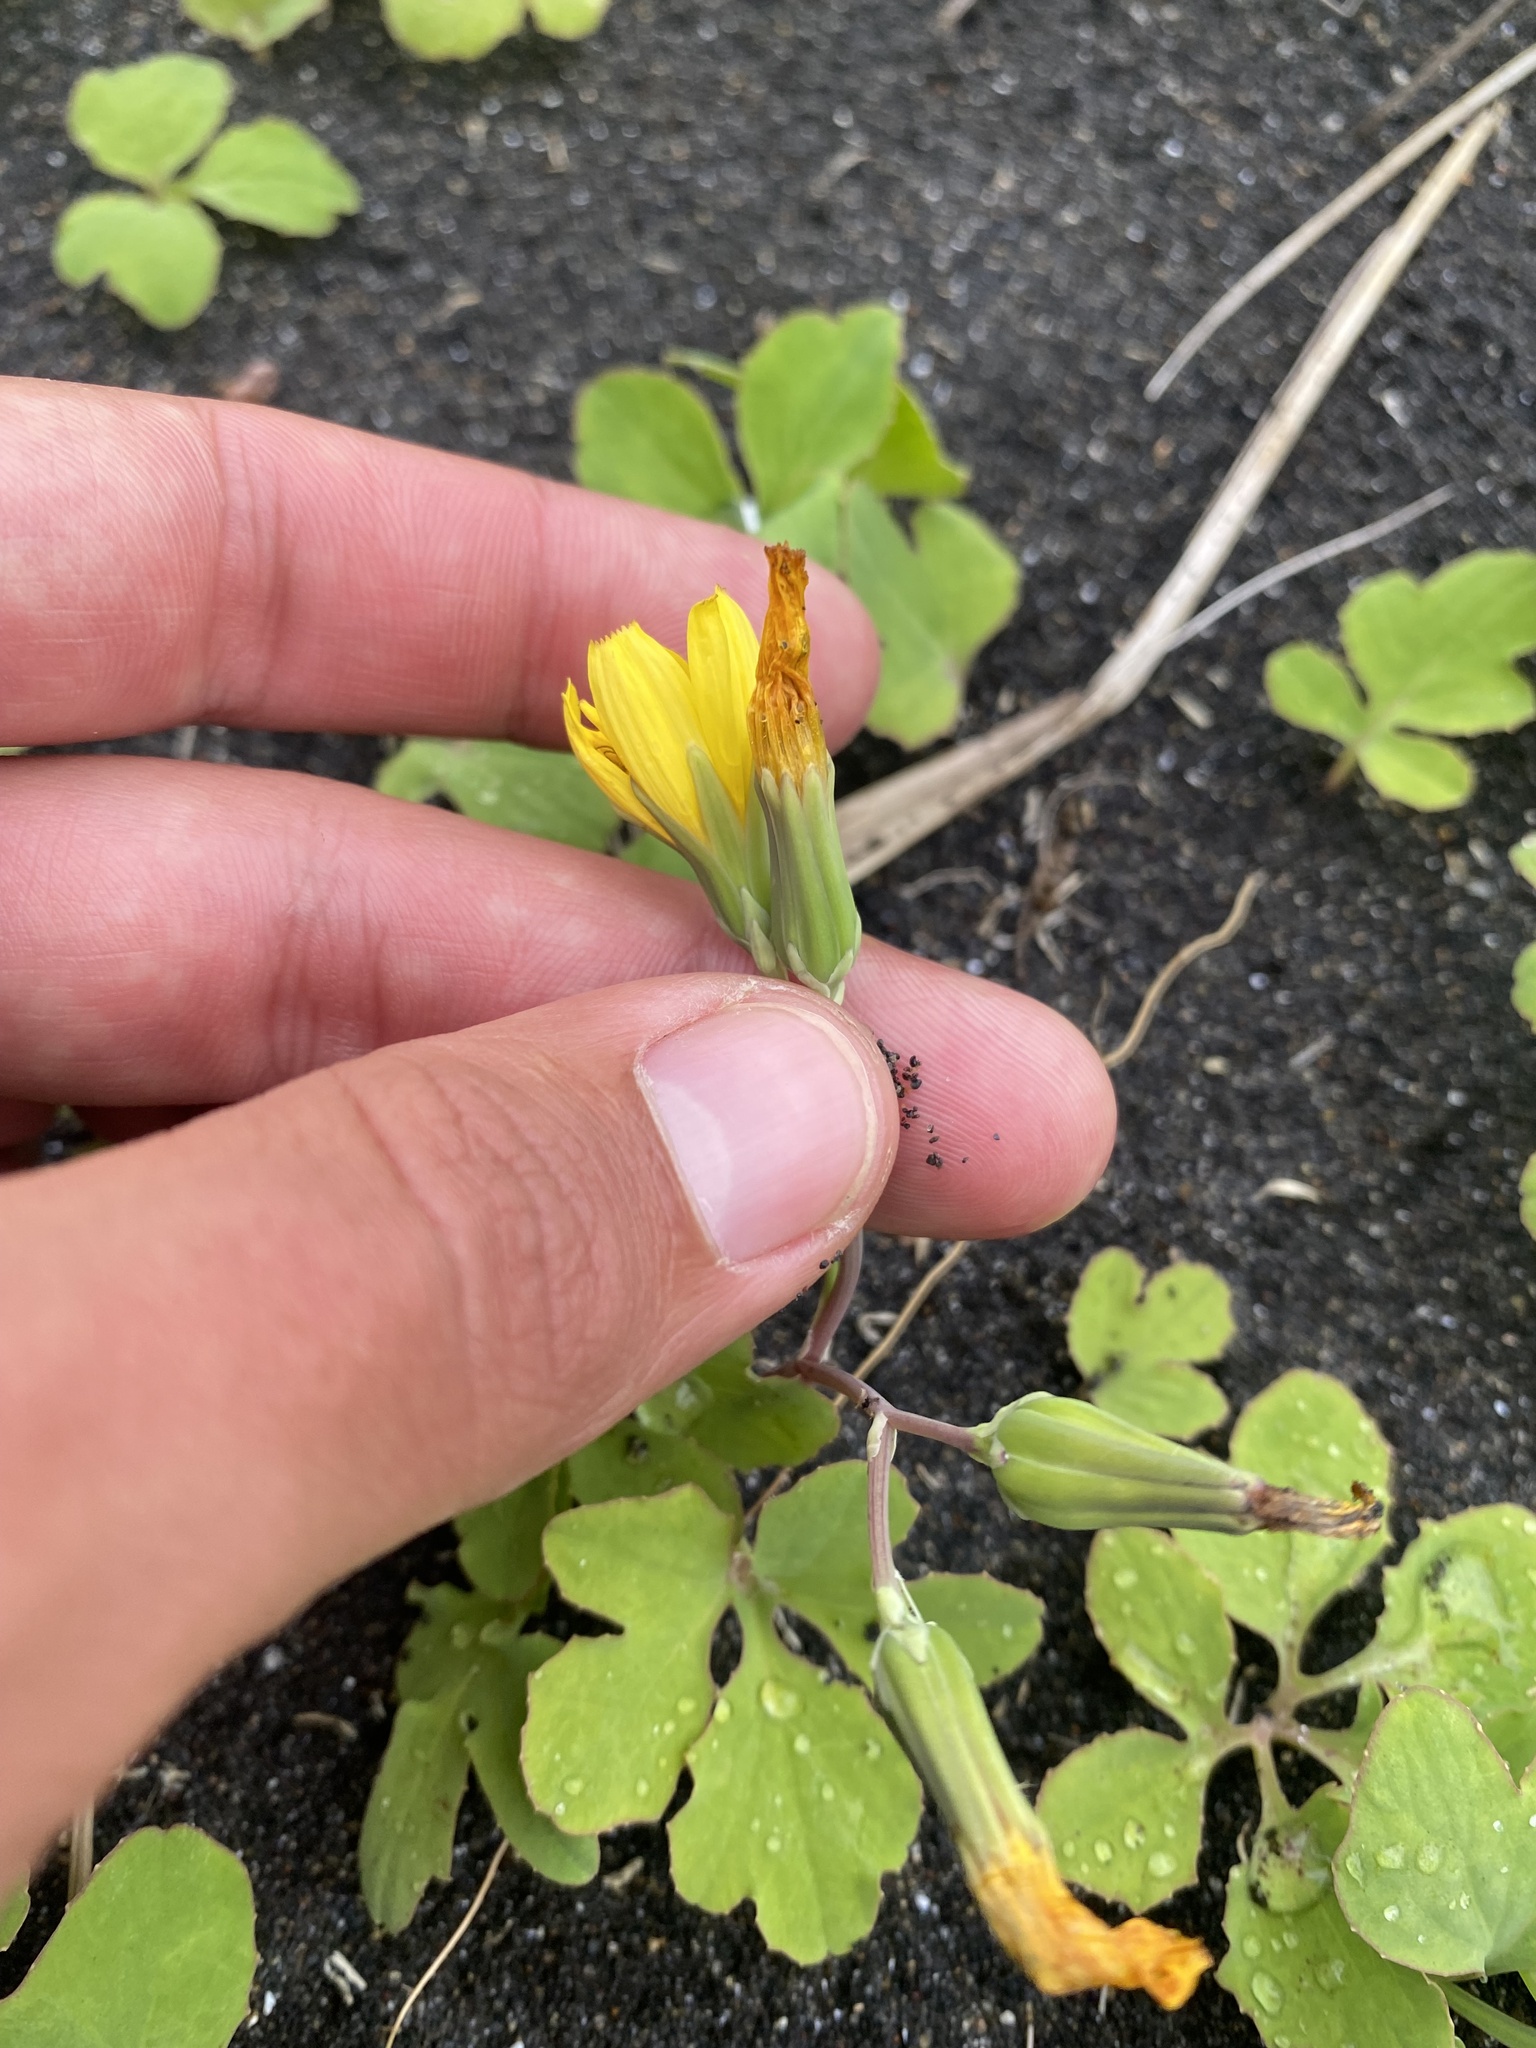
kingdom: Plantae
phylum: Tracheophyta
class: Magnoliopsida
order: Asterales
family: Asteraceae
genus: Ixeris
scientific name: Ixeris repens
